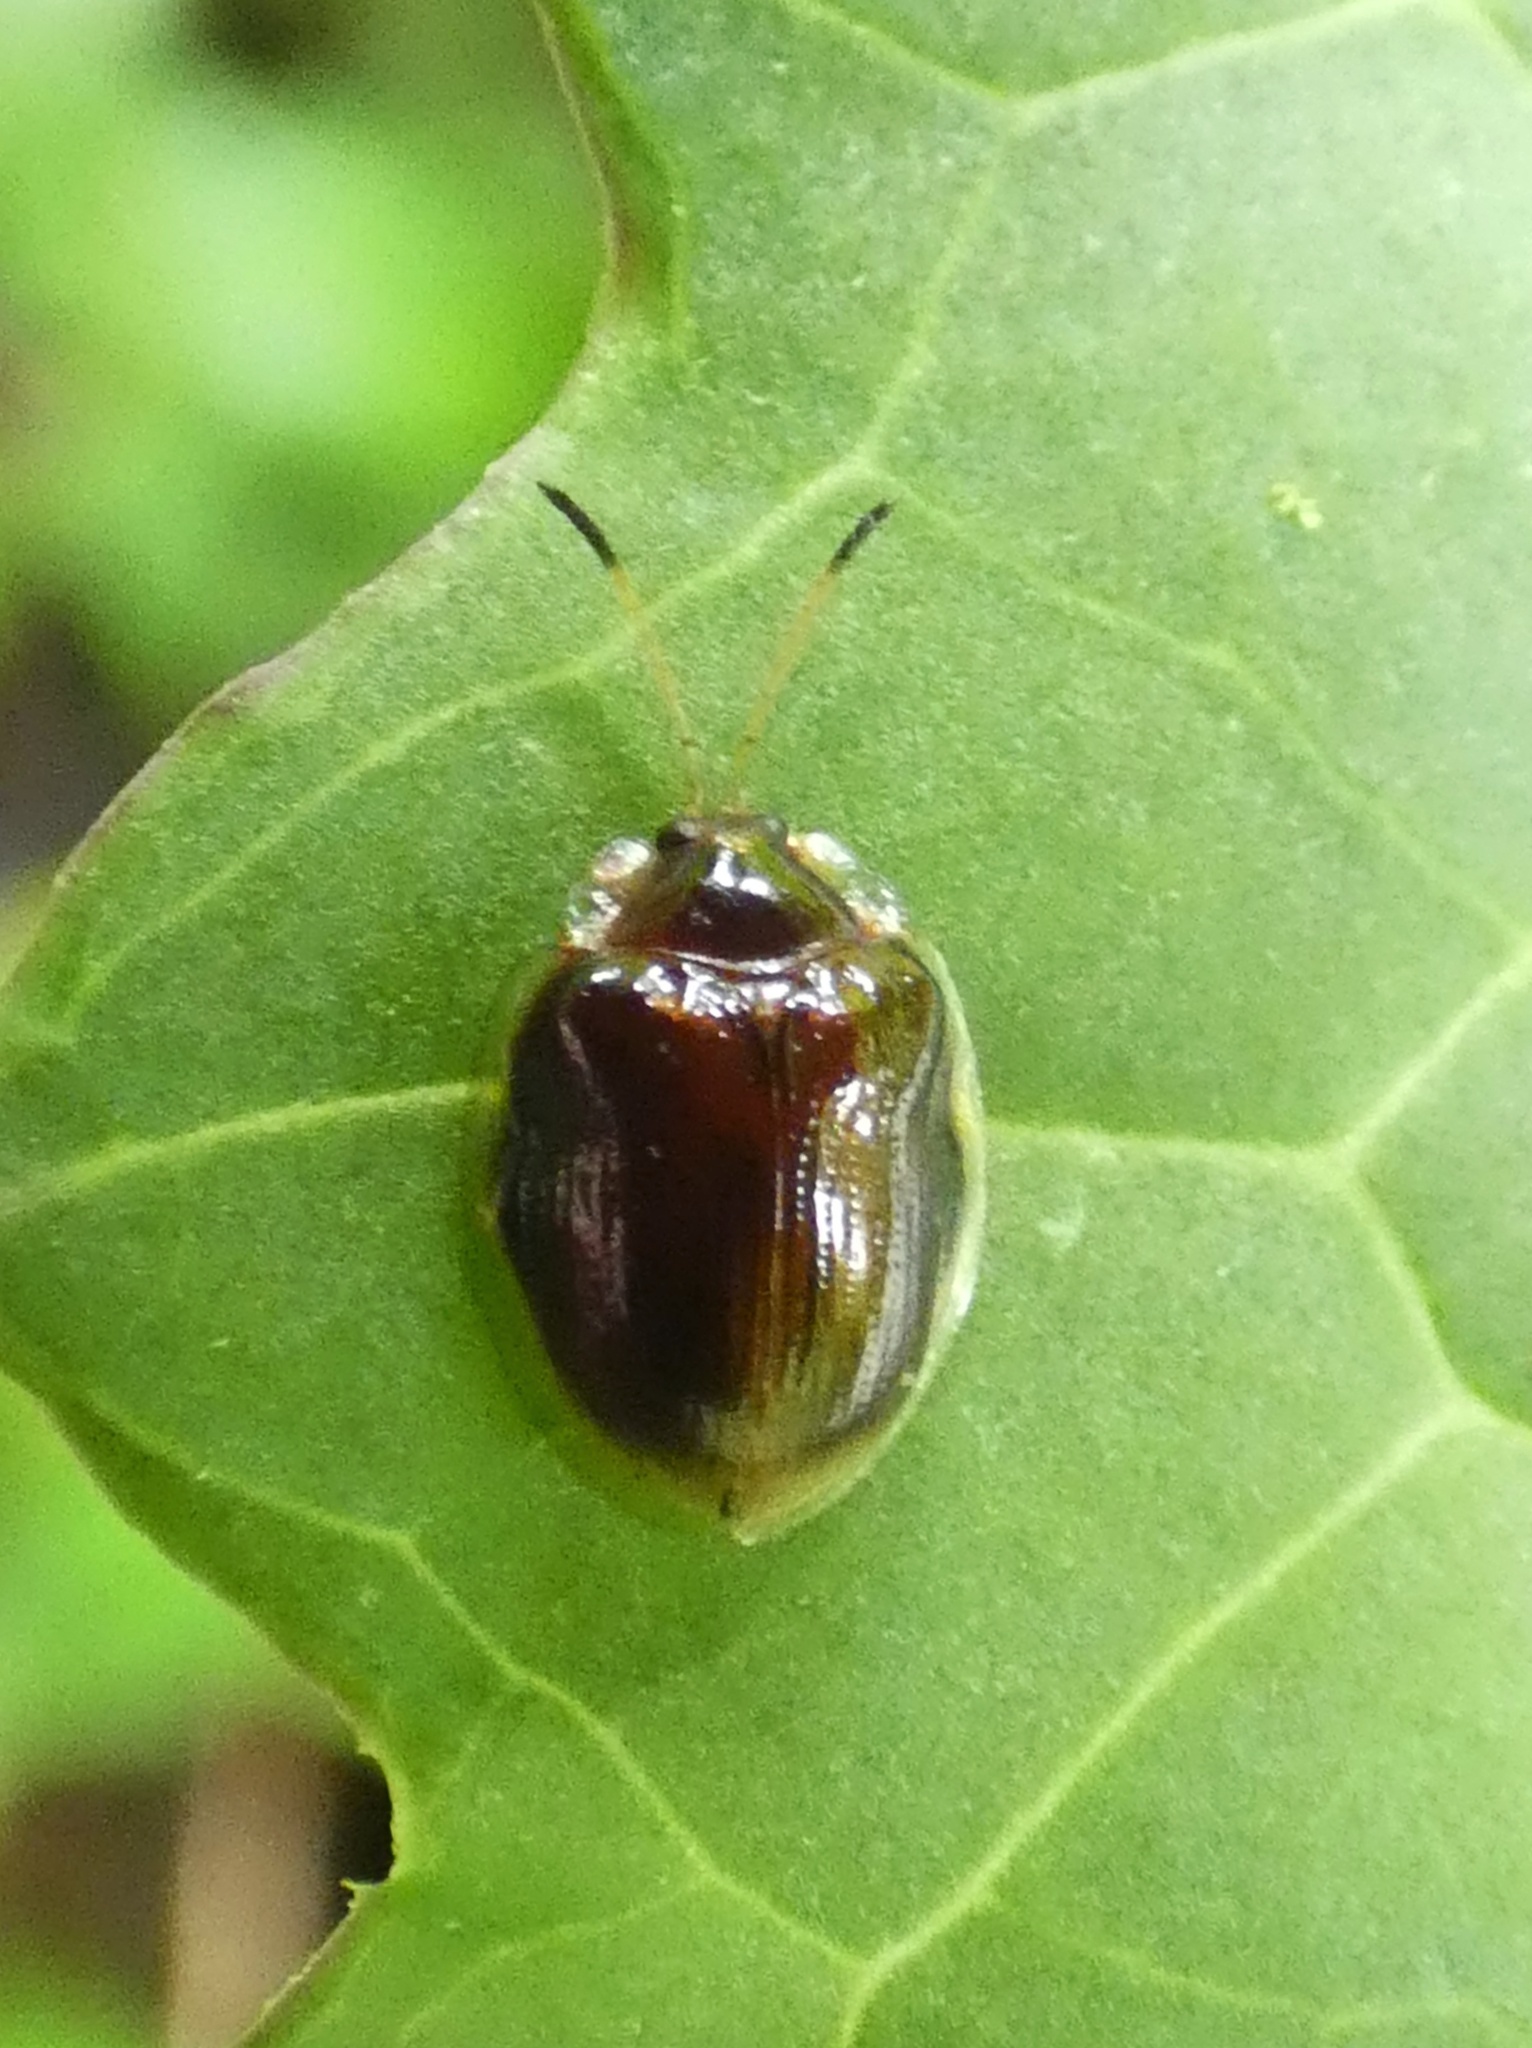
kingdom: Animalia
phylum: Arthropoda
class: Insecta
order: Coleoptera
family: Chrysomelidae
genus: Demotispa
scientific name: Demotispa
